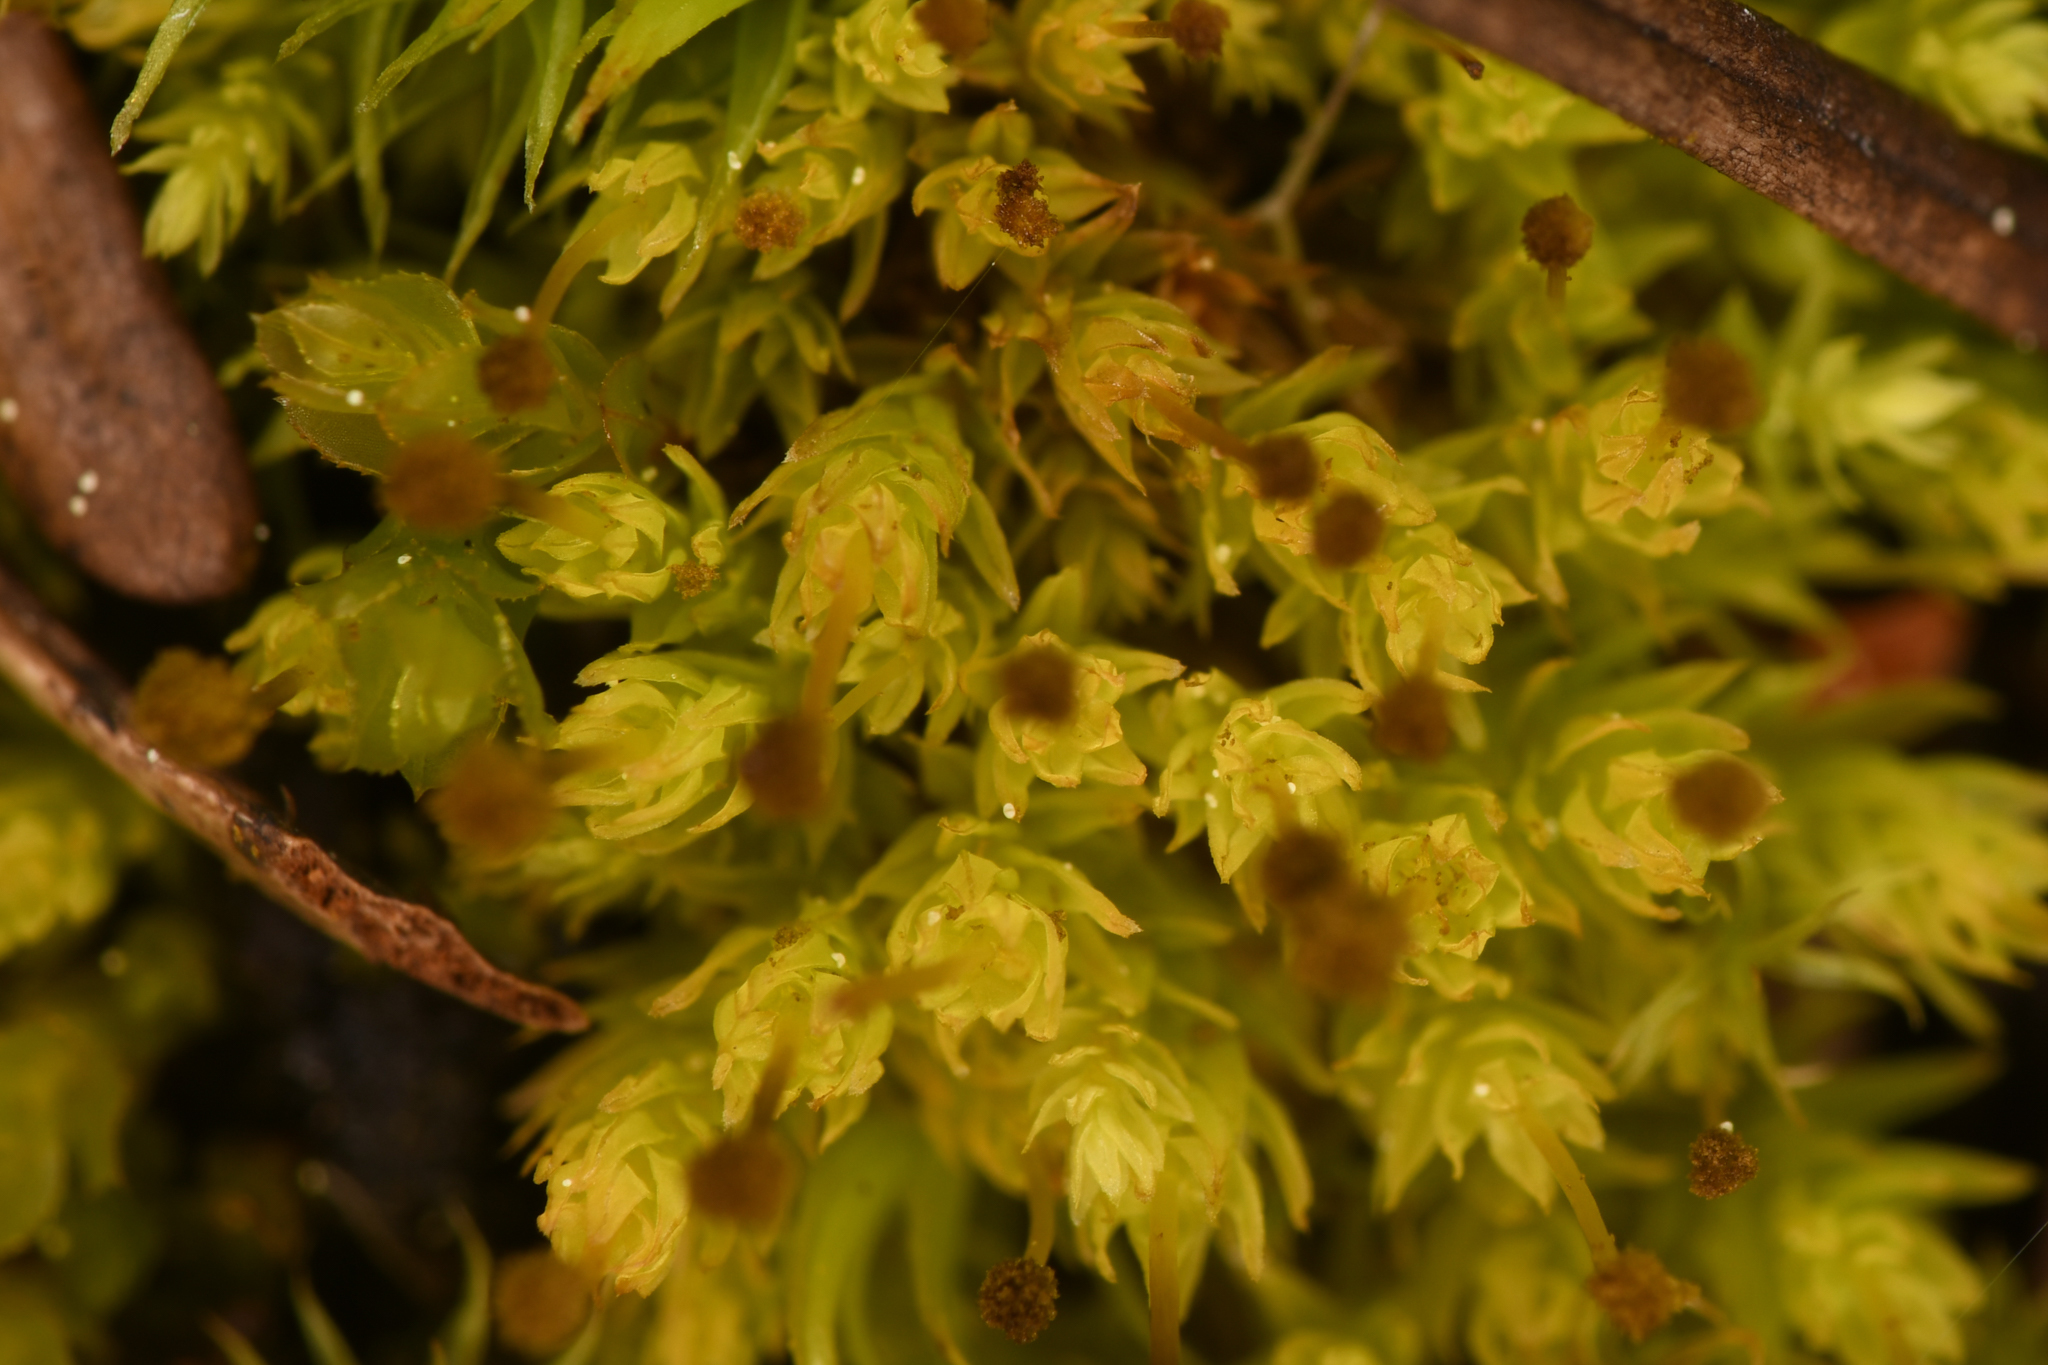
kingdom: Plantae
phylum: Bryophyta
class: Bryopsida
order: Aulacomniales
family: Aulacomniaceae
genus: Aulacomnium
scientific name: Aulacomnium androgynum
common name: Little groove moss
